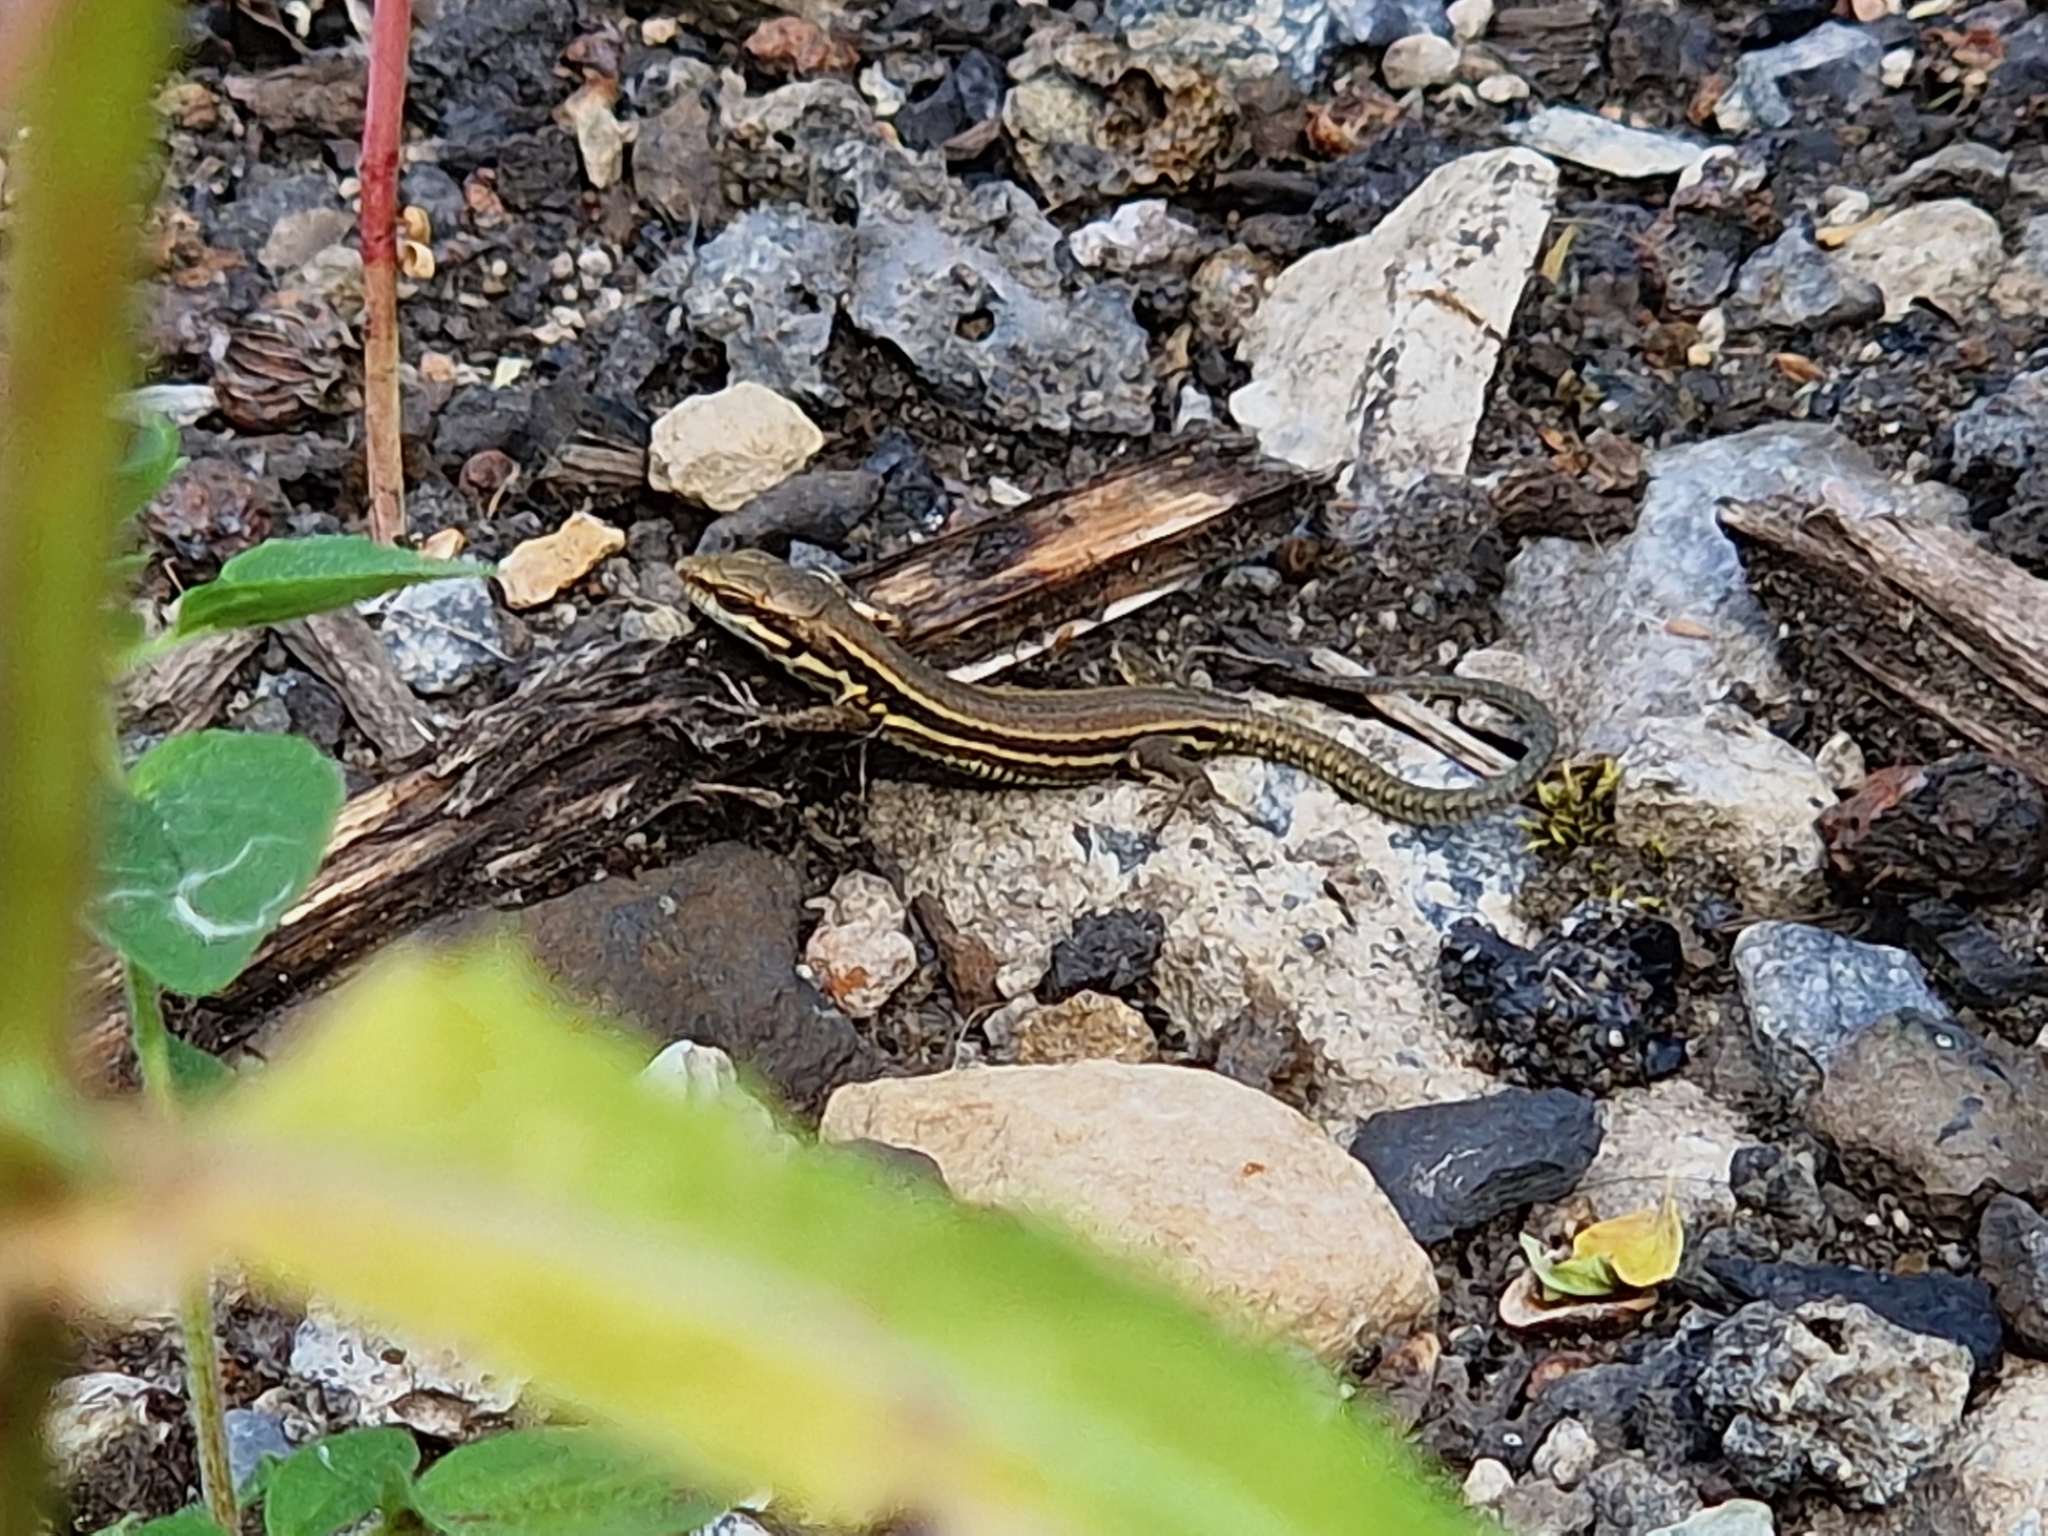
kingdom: Animalia
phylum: Chordata
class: Squamata
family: Lacertidae
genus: Podarcis
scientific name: Podarcis muralis
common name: Common wall lizard
